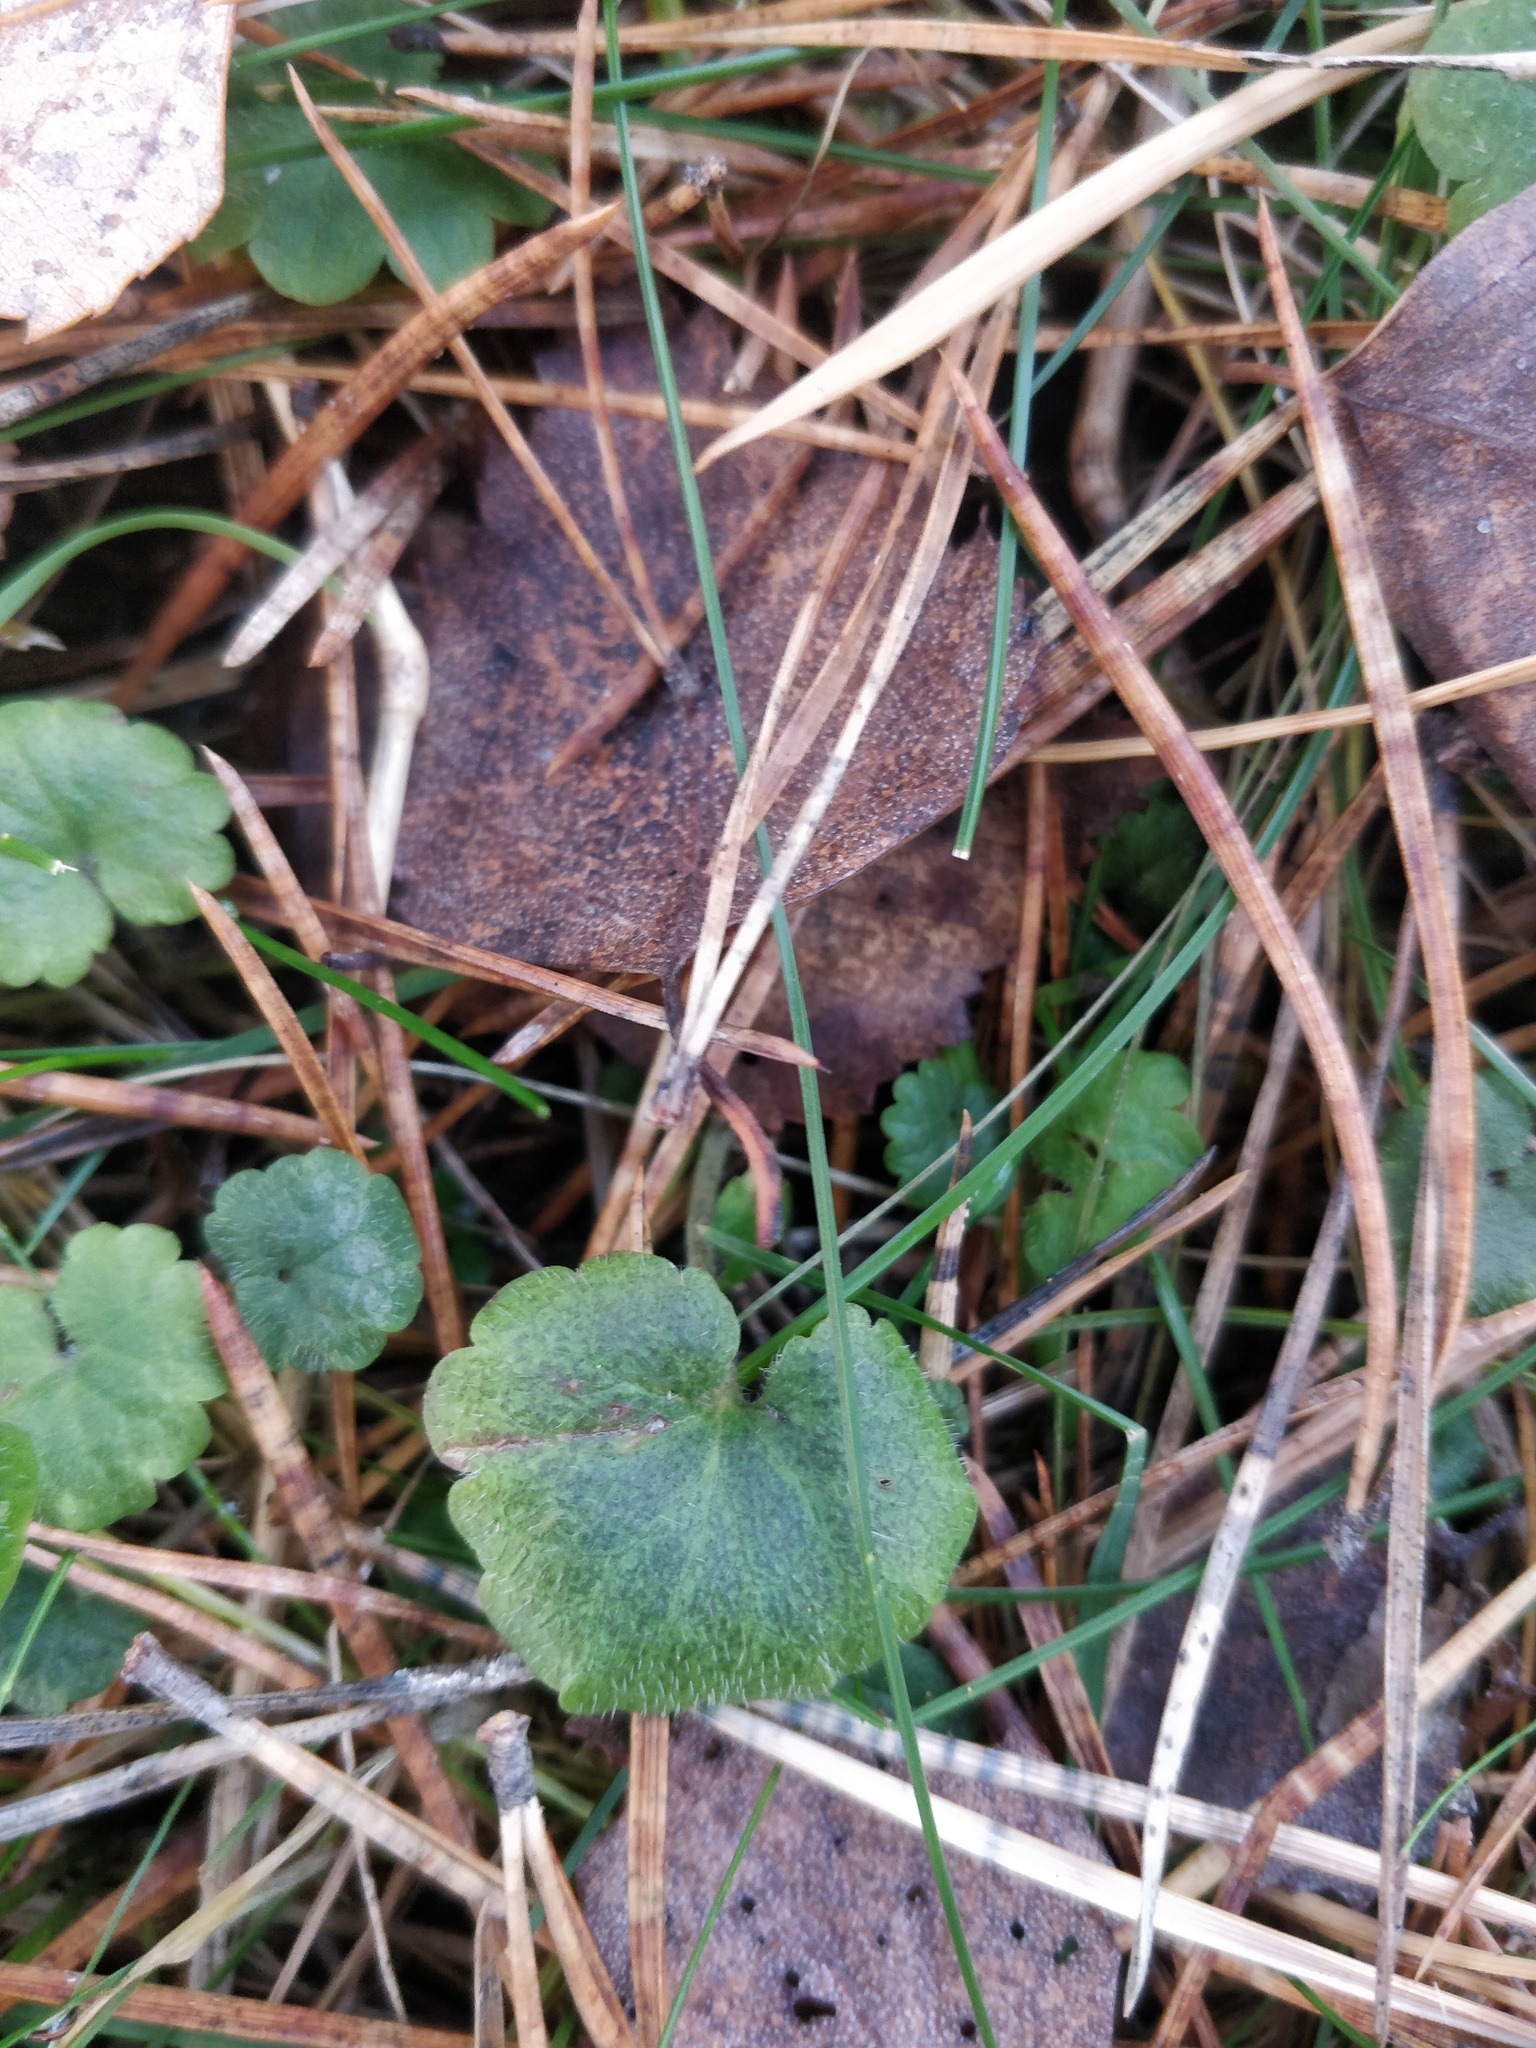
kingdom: Plantae
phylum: Tracheophyta
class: Magnoliopsida
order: Lamiales
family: Lamiaceae
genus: Glechoma
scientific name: Glechoma hederacea
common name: Ground ivy
